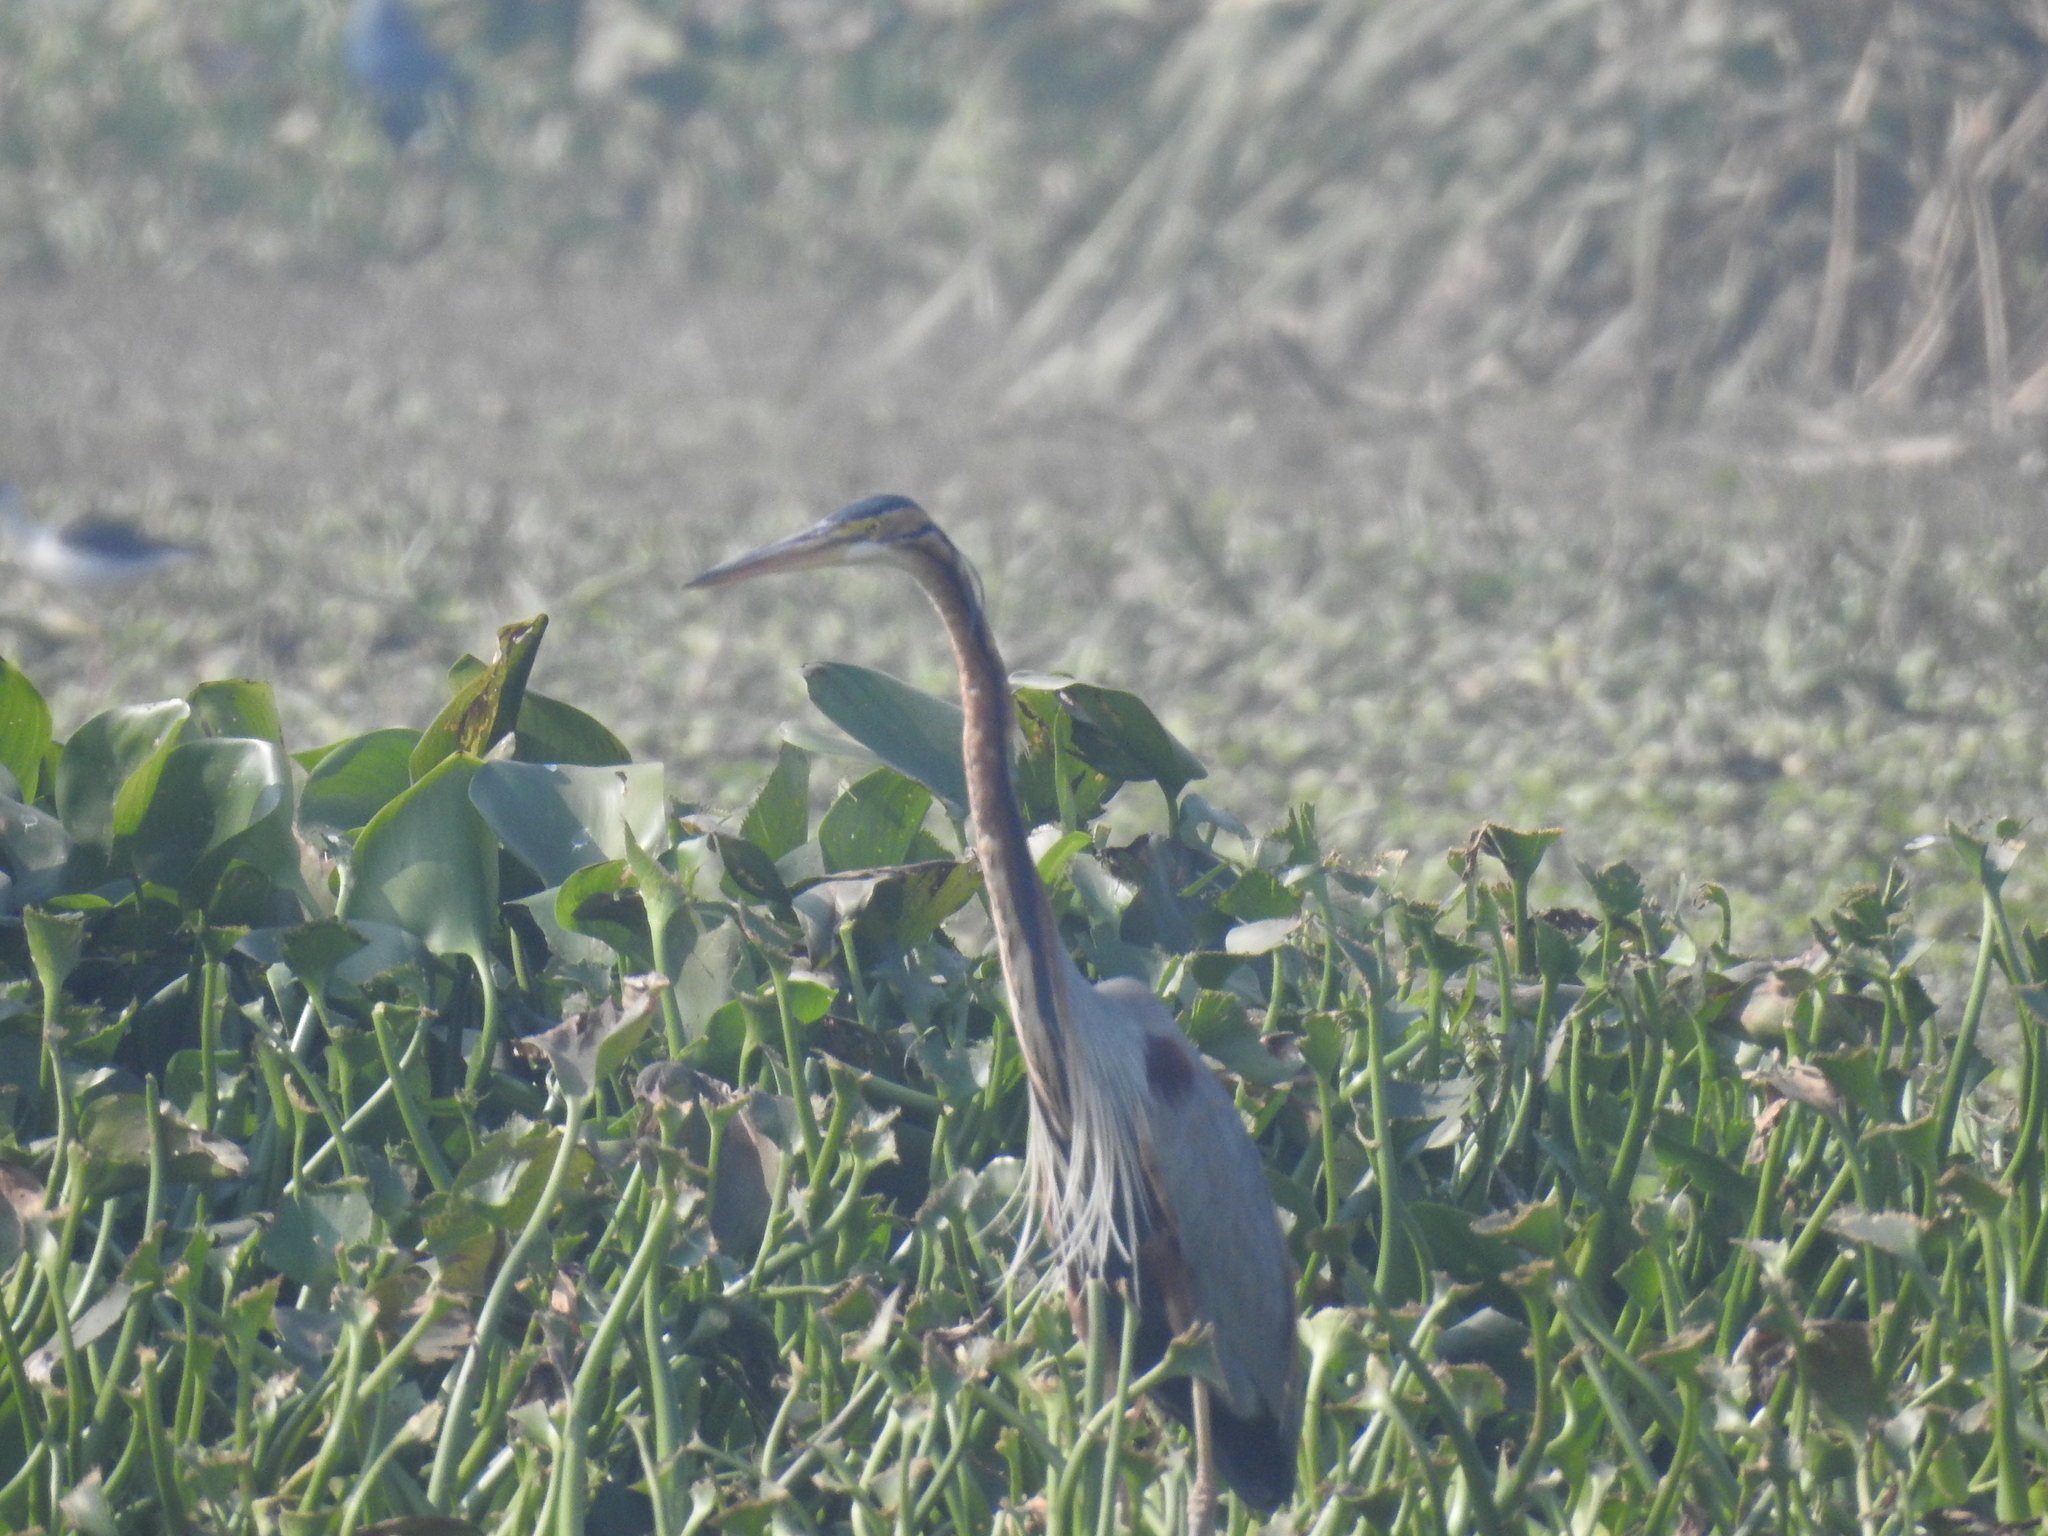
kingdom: Animalia
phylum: Chordata
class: Aves
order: Pelecaniformes
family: Ardeidae
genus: Ardea
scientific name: Ardea purpurea
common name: Purple heron
